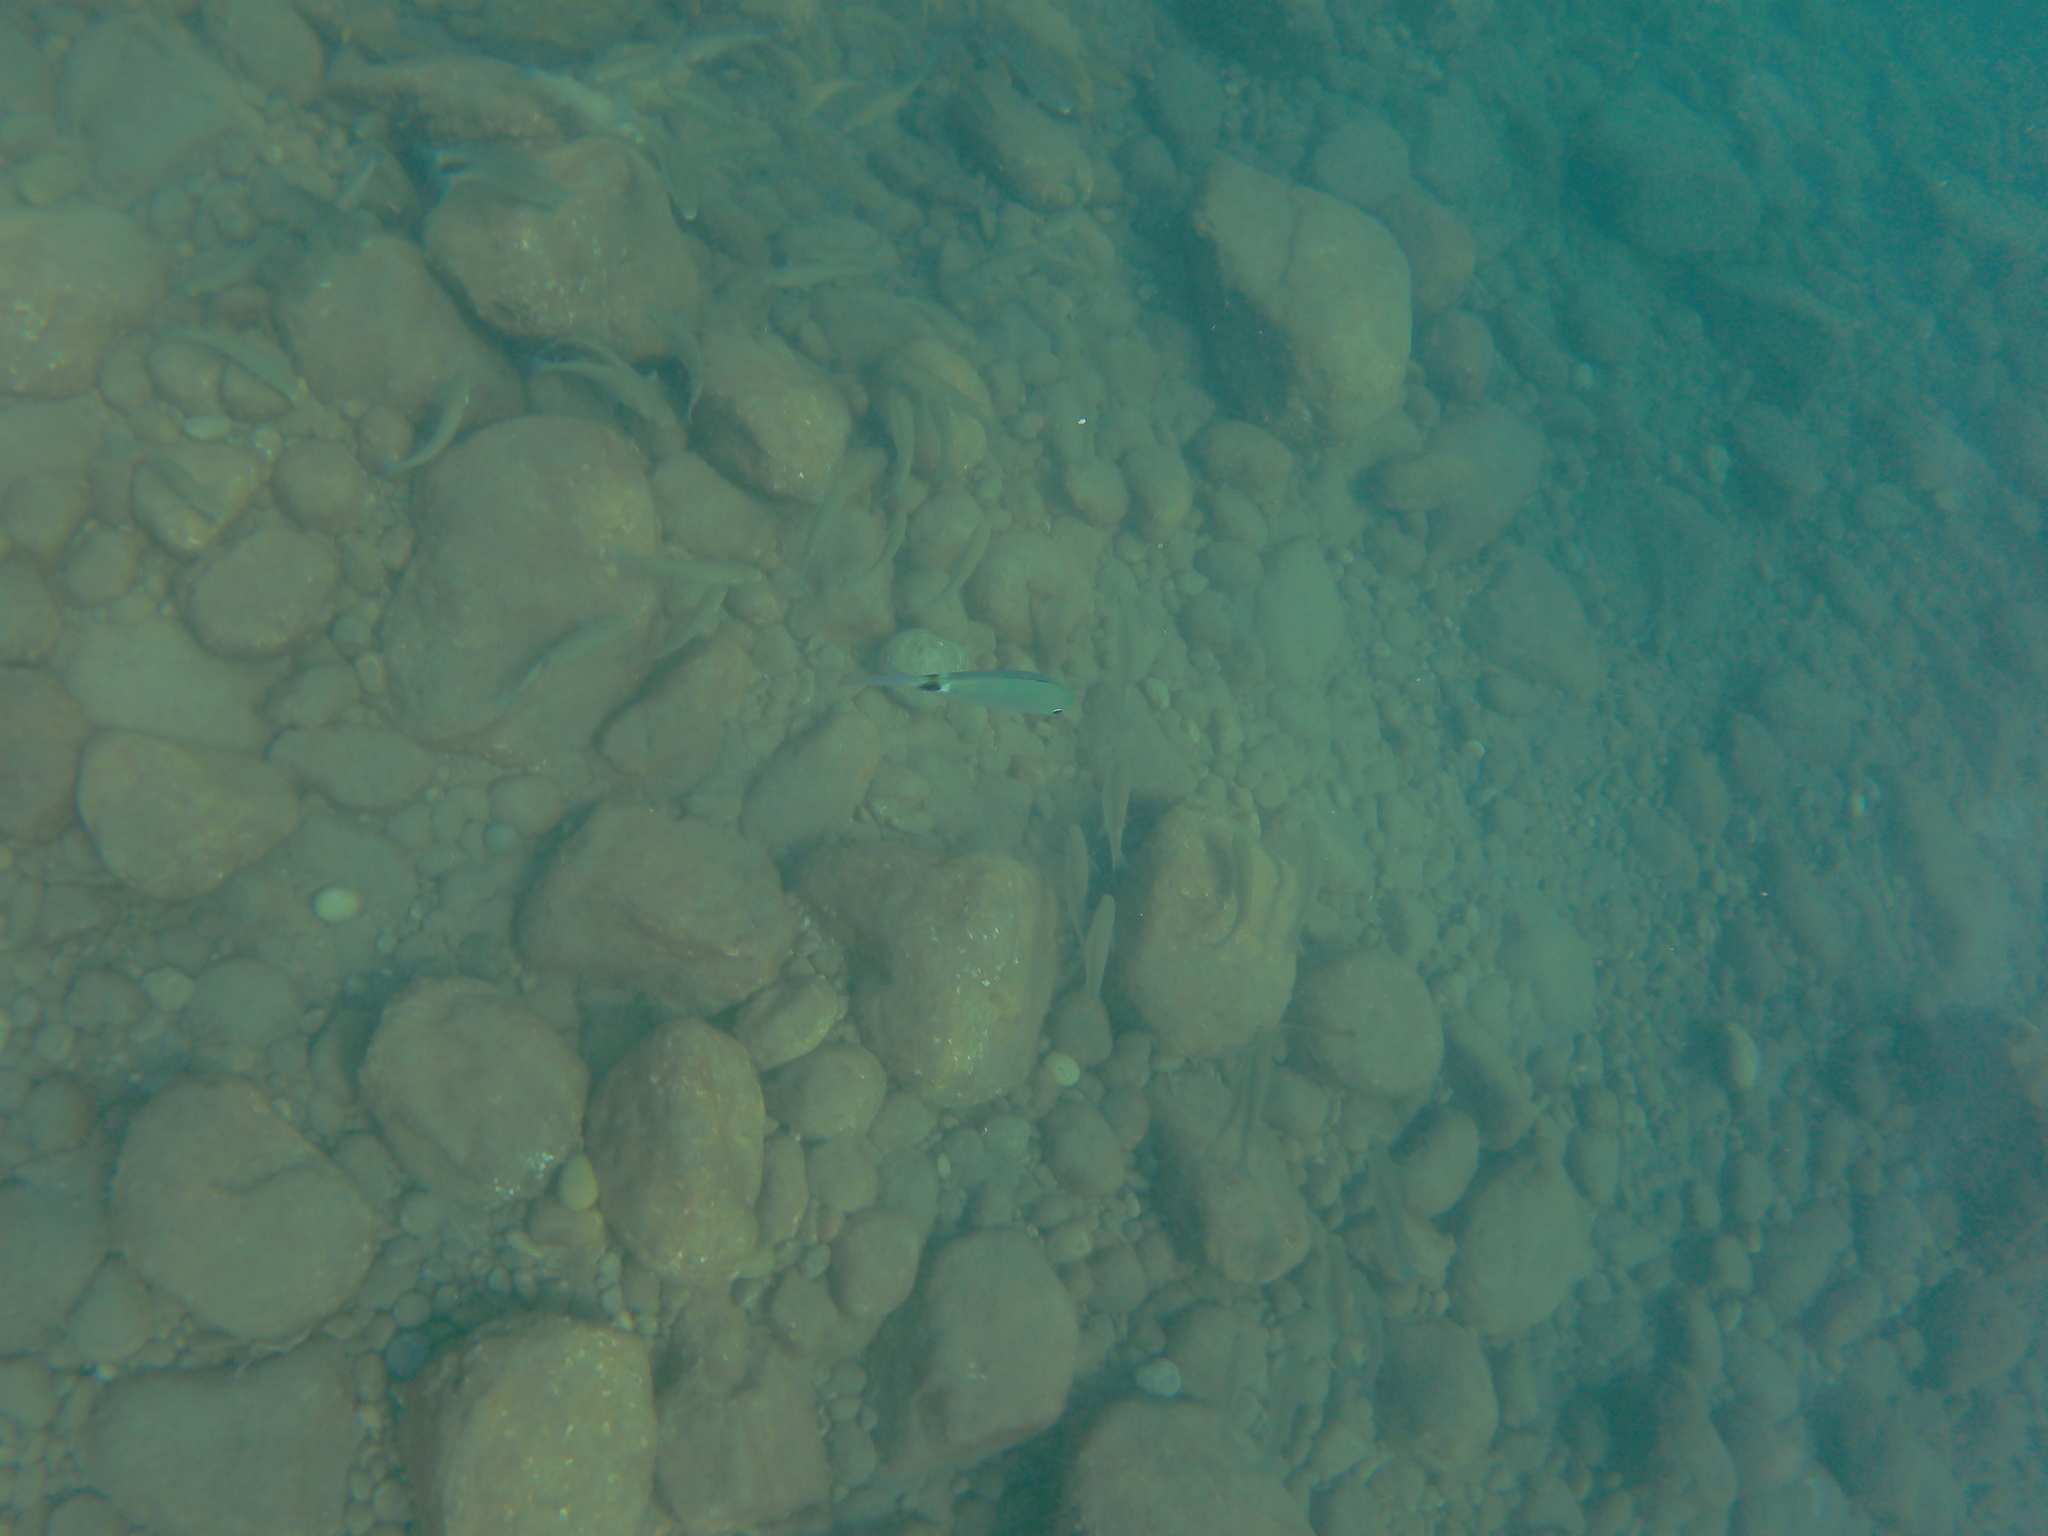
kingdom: Animalia
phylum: Chordata
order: Perciformes
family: Sparidae
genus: Oblada
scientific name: Oblada melanura
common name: Saddled seabream
